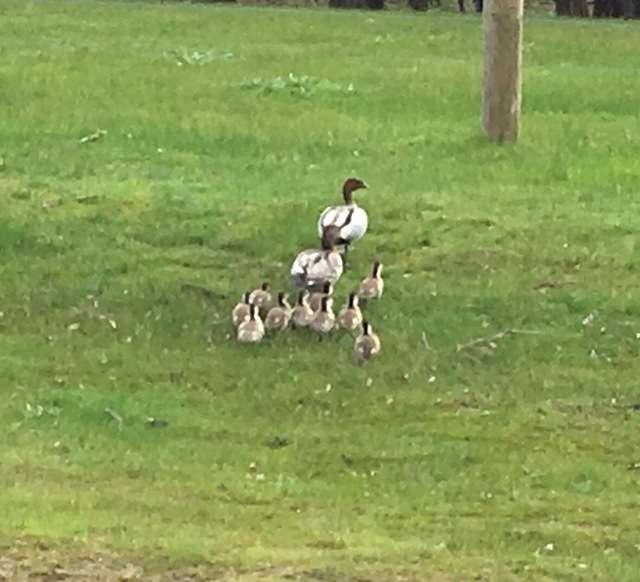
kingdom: Animalia
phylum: Chordata
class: Aves
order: Anseriformes
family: Anatidae
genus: Chenonetta
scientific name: Chenonetta jubata
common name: Maned duck
